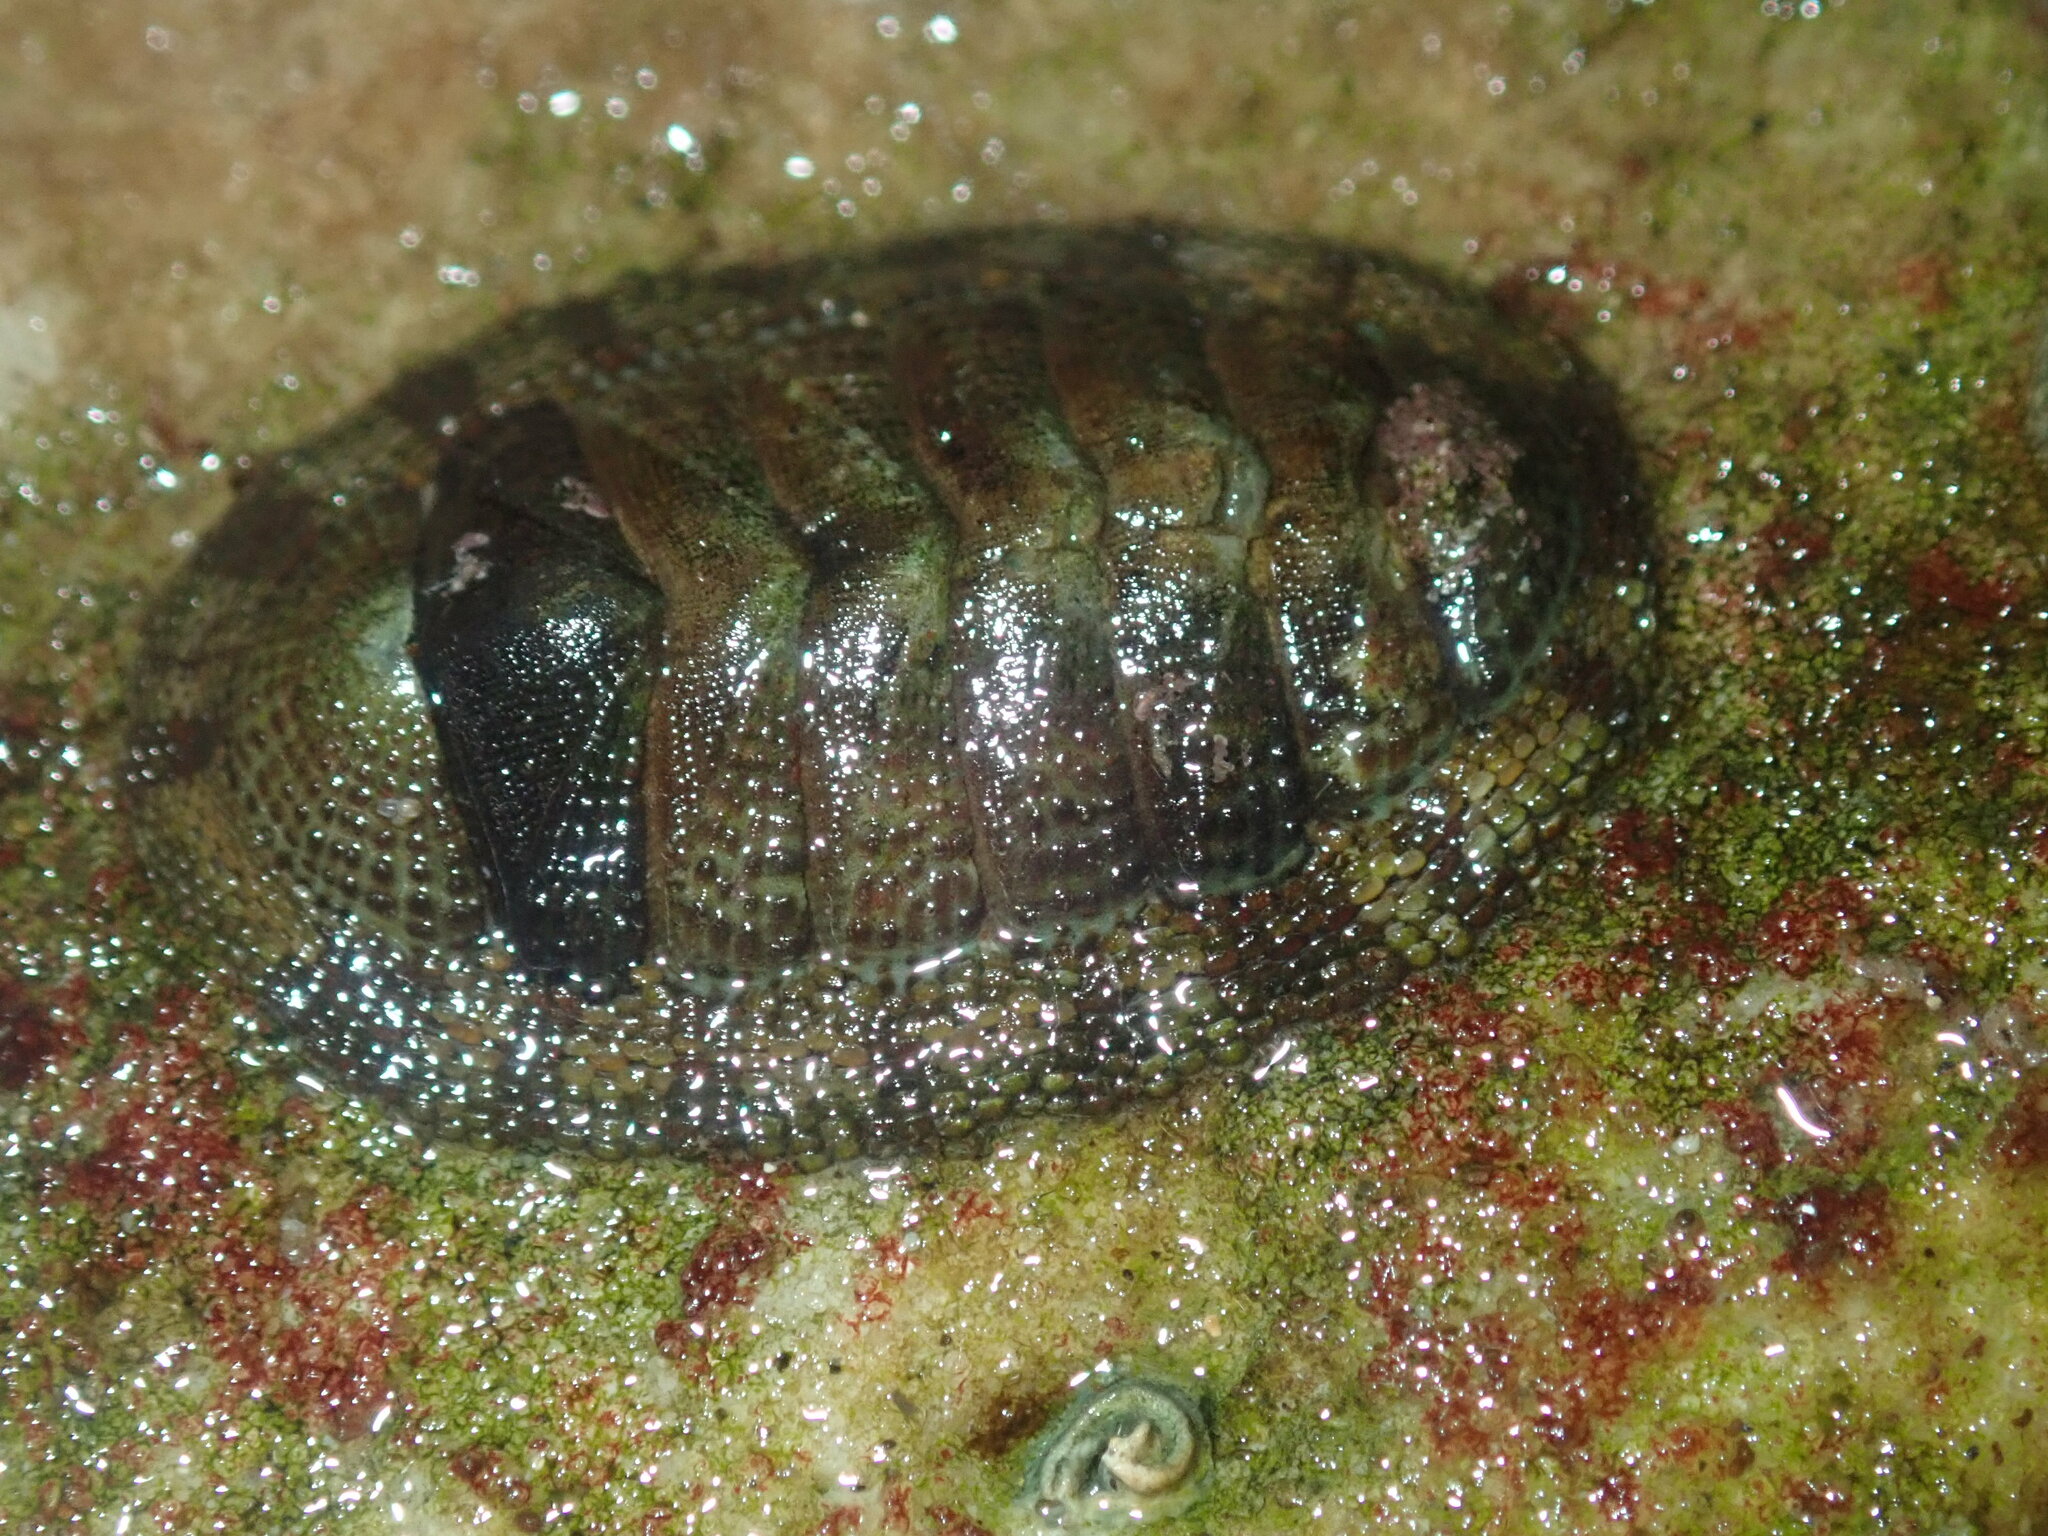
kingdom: Animalia
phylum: Mollusca
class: Polyplacophora
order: Chitonida
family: Chitonidae
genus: Sypharochiton
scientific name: Sypharochiton pelliserpentis
